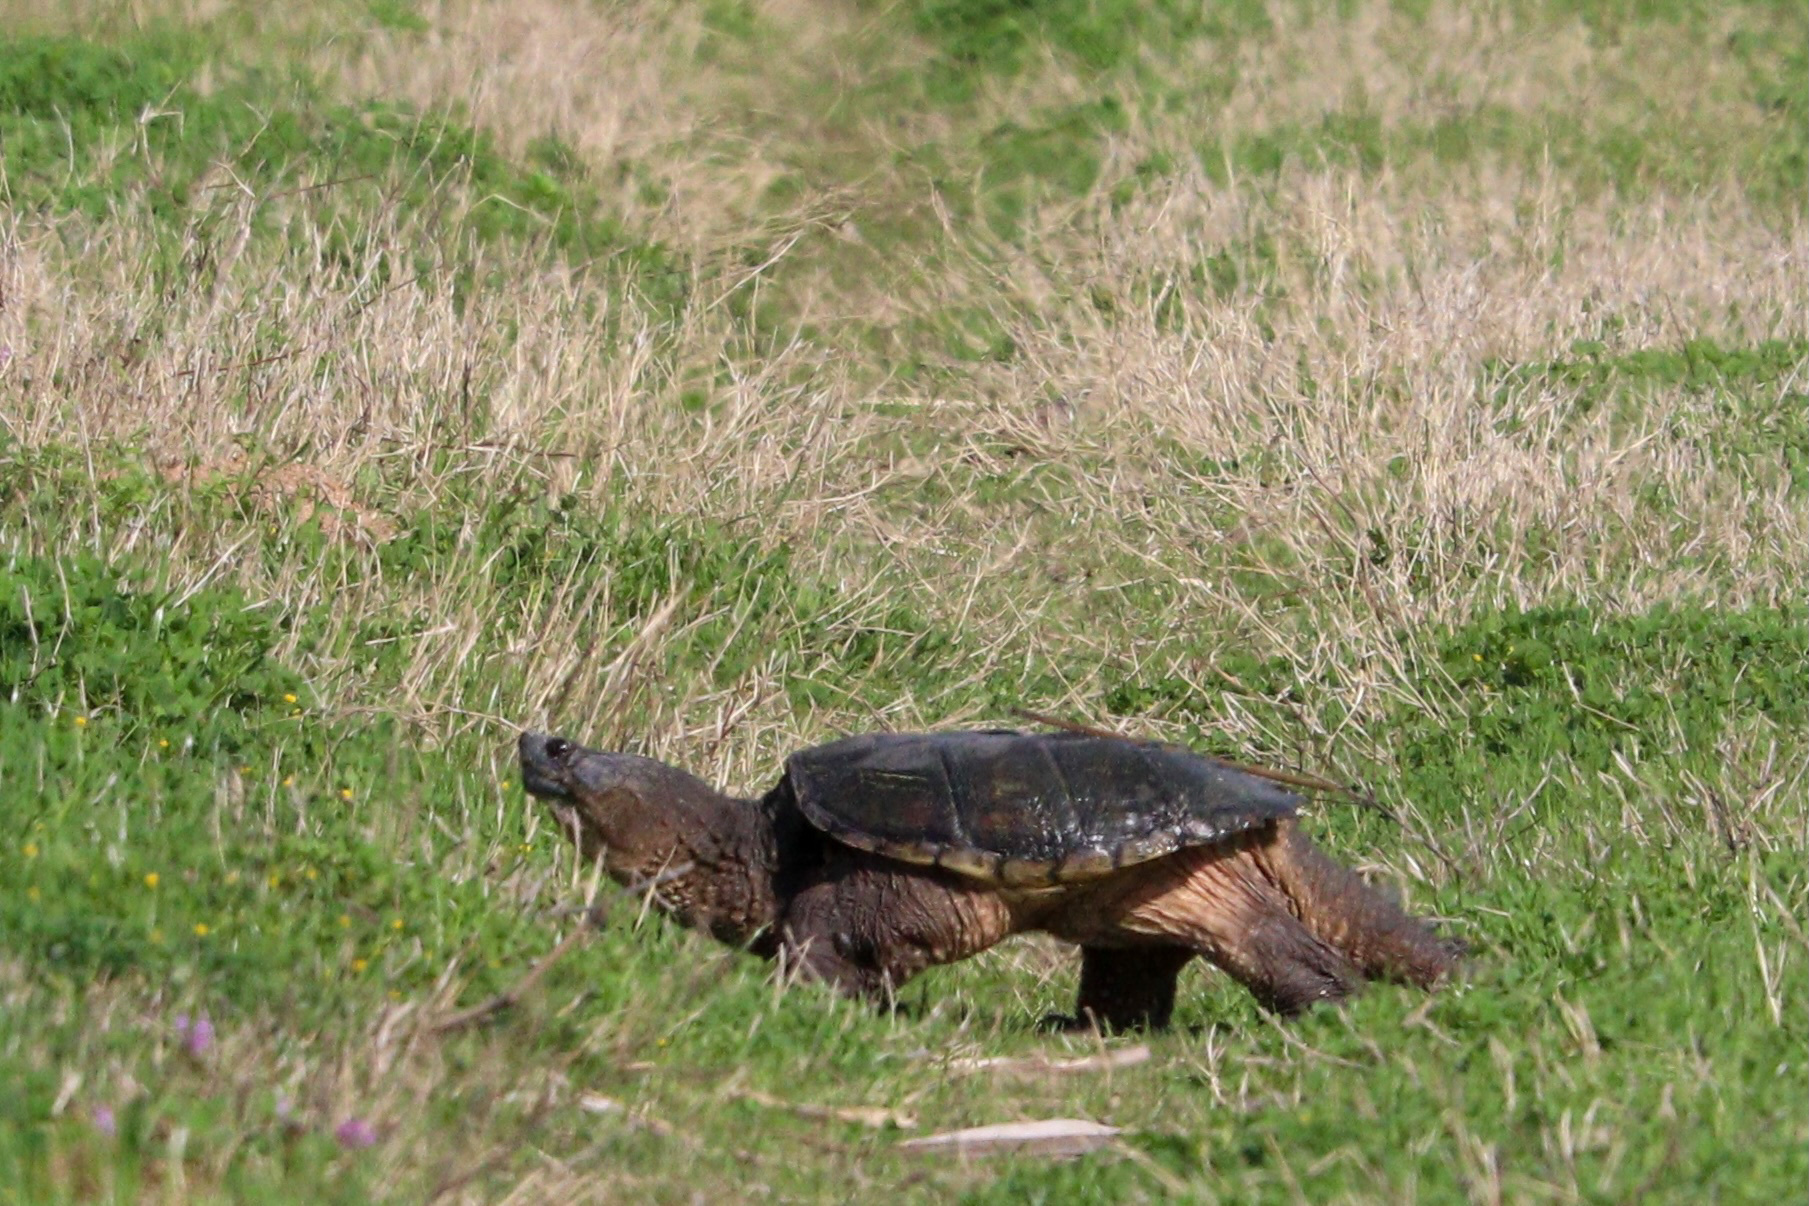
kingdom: Animalia
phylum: Chordata
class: Testudines
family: Chelydridae
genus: Chelydra
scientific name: Chelydra serpentina
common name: Common snapping turtle
